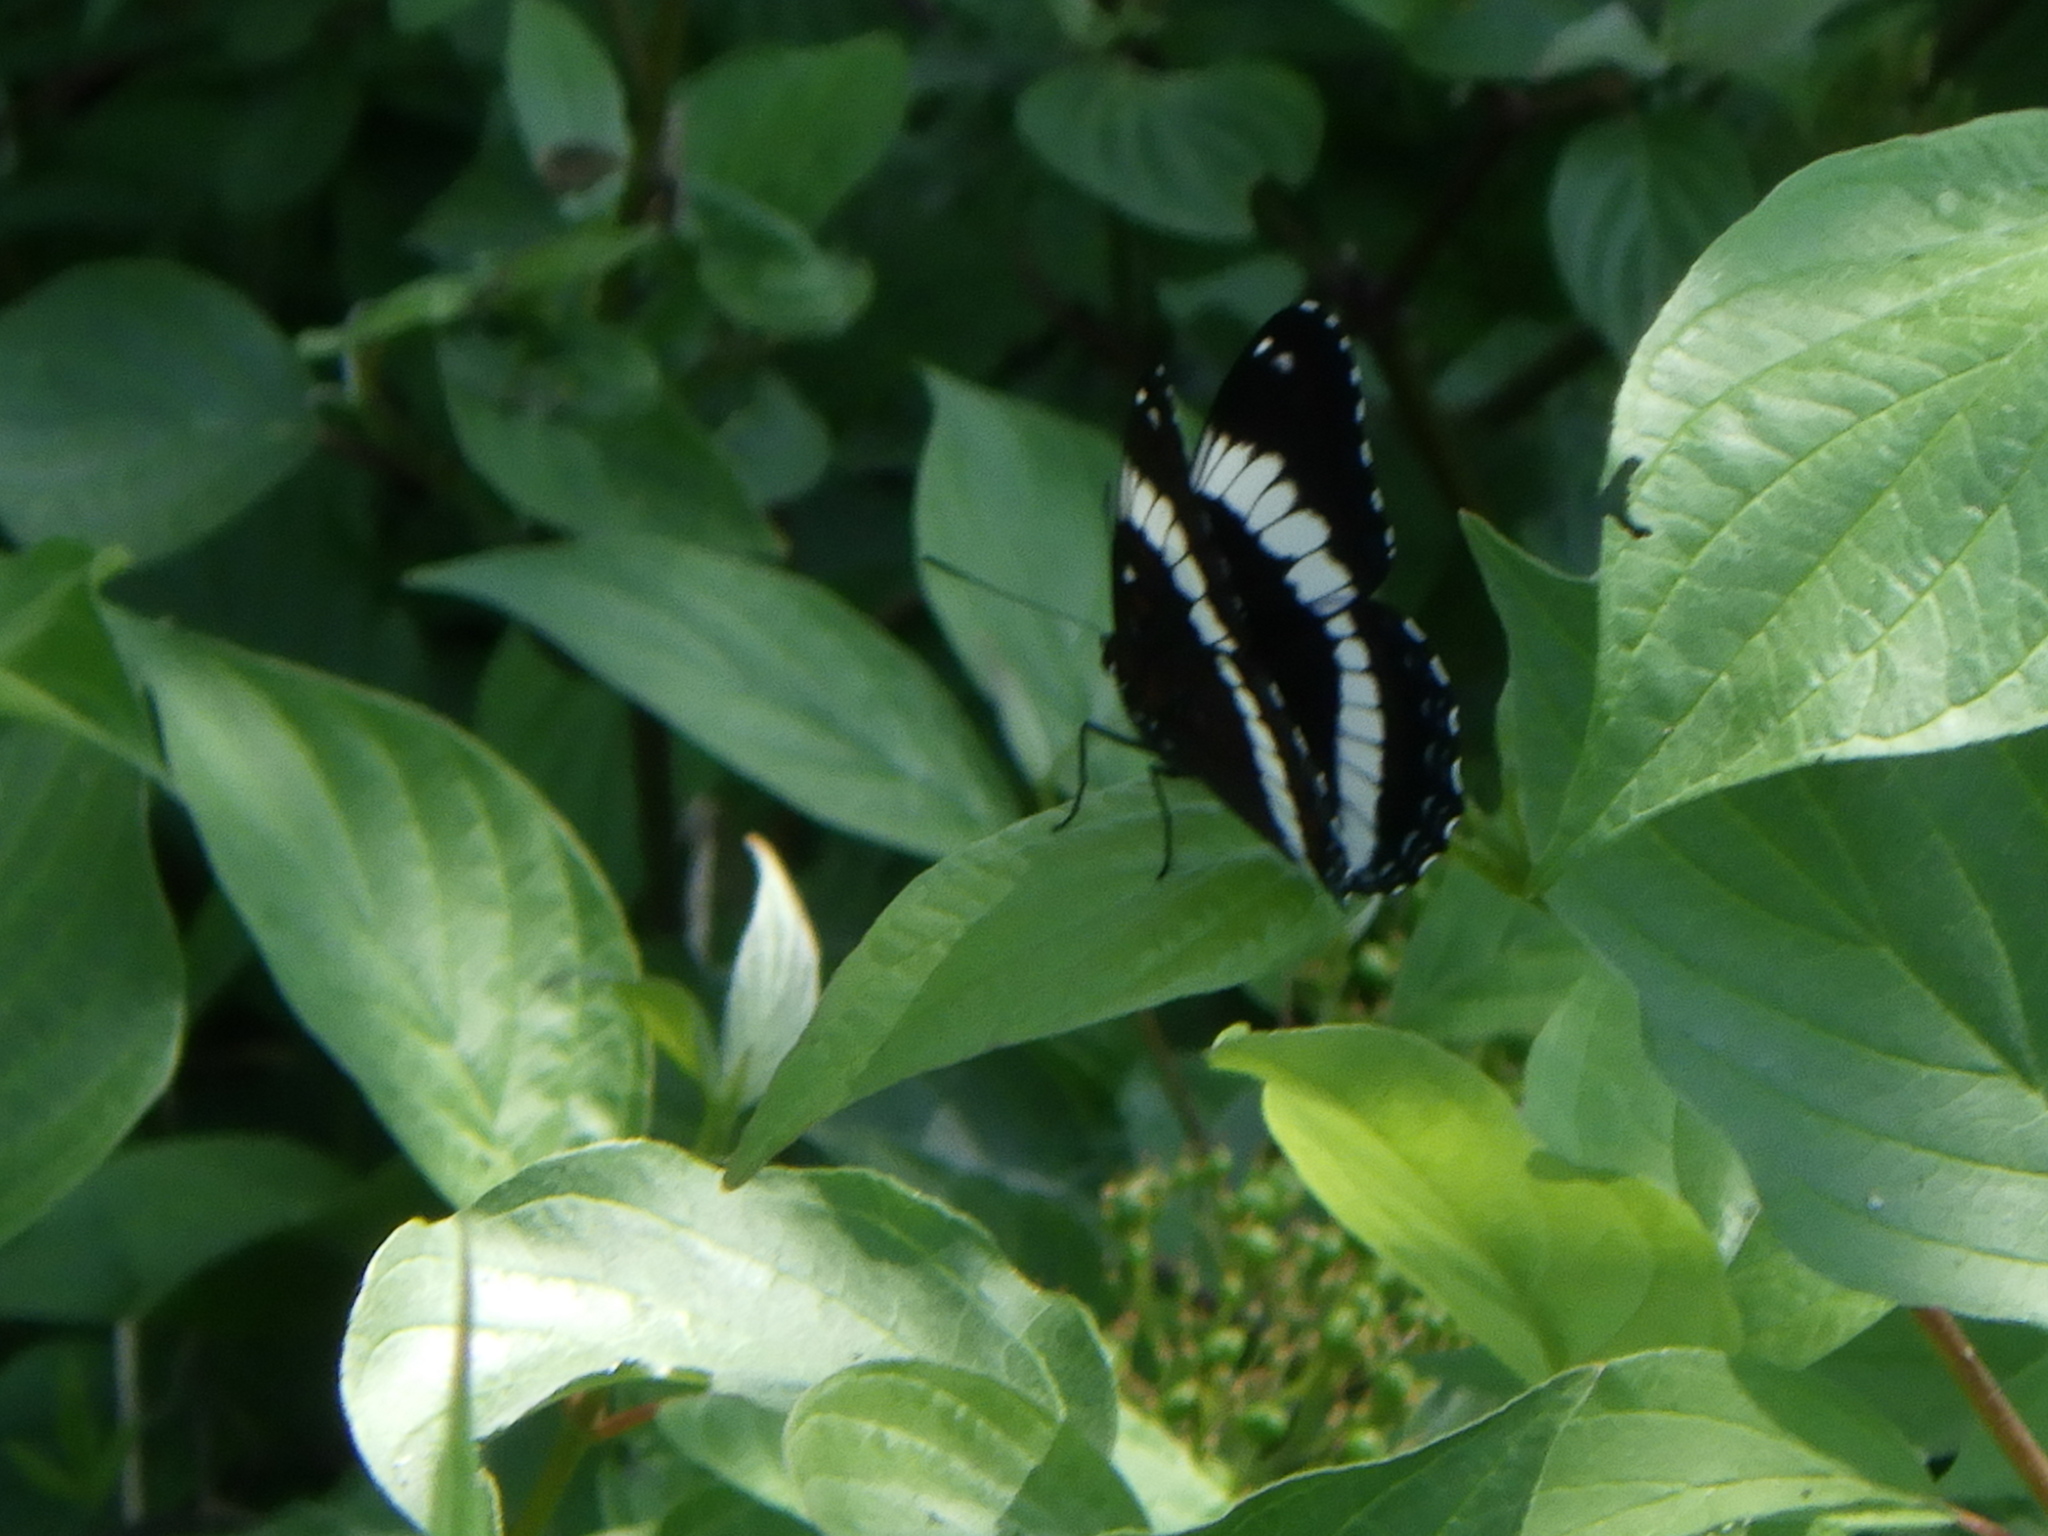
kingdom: Animalia
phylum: Arthropoda
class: Insecta
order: Lepidoptera
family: Nymphalidae
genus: Limenitis
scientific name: Limenitis arthemis
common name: Red-spotted admiral
